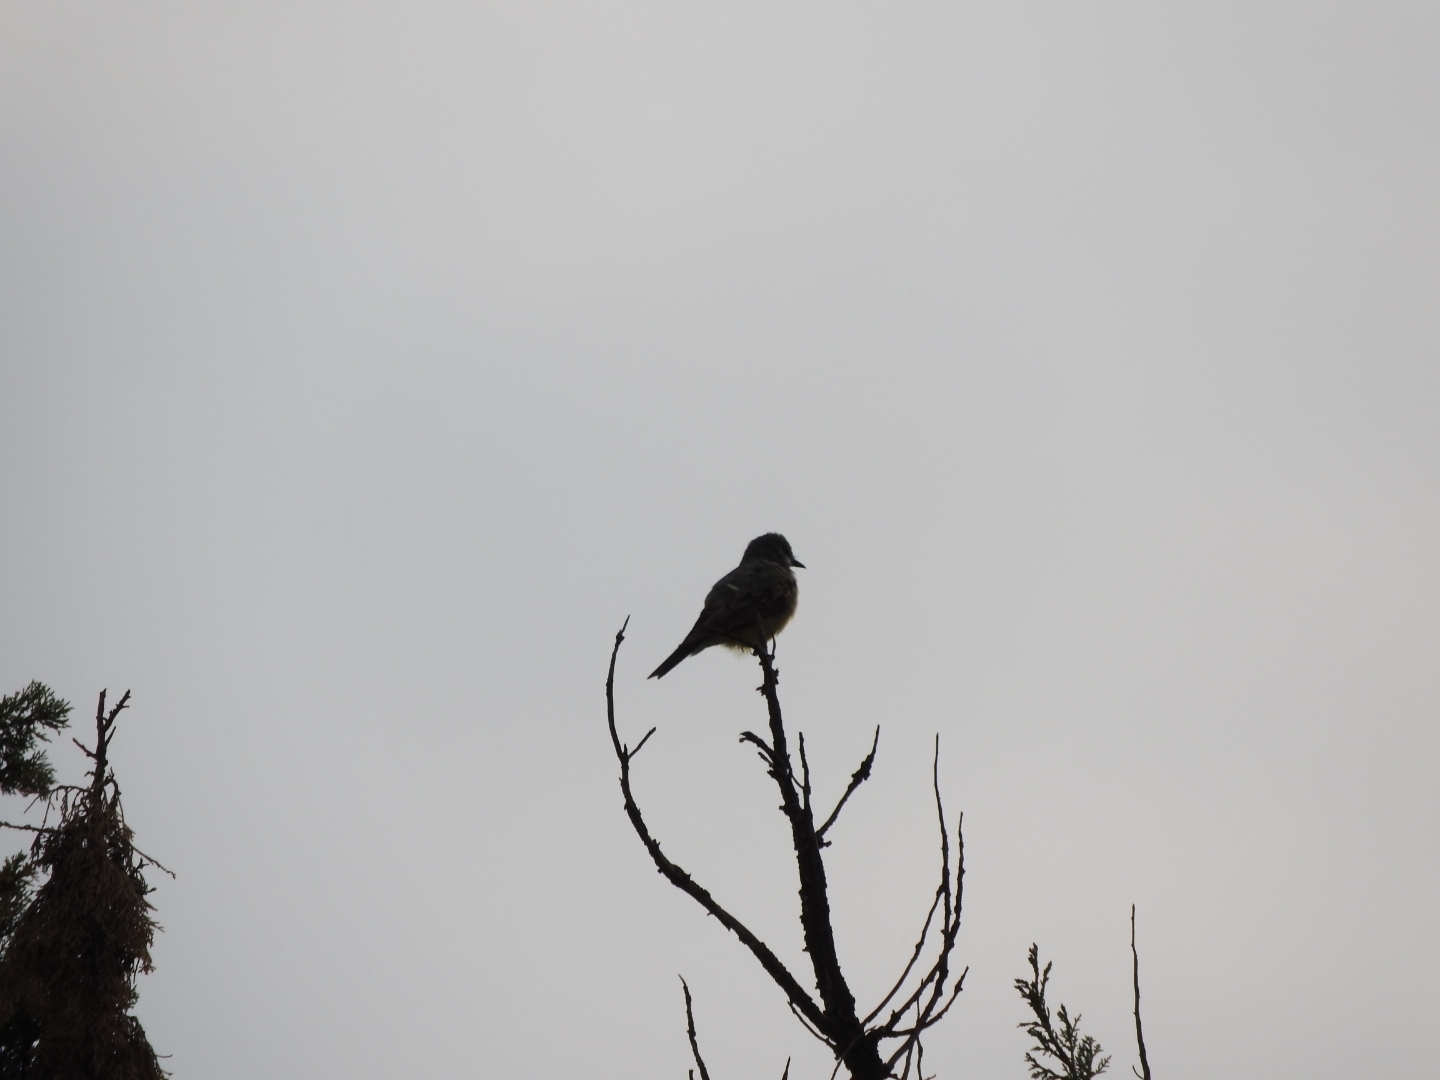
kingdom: Animalia
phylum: Chordata
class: Aves
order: Passeriformes
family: Tyrannidae
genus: Tyrannus
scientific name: Tyrannus vociferans
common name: Cassin's kingbird
